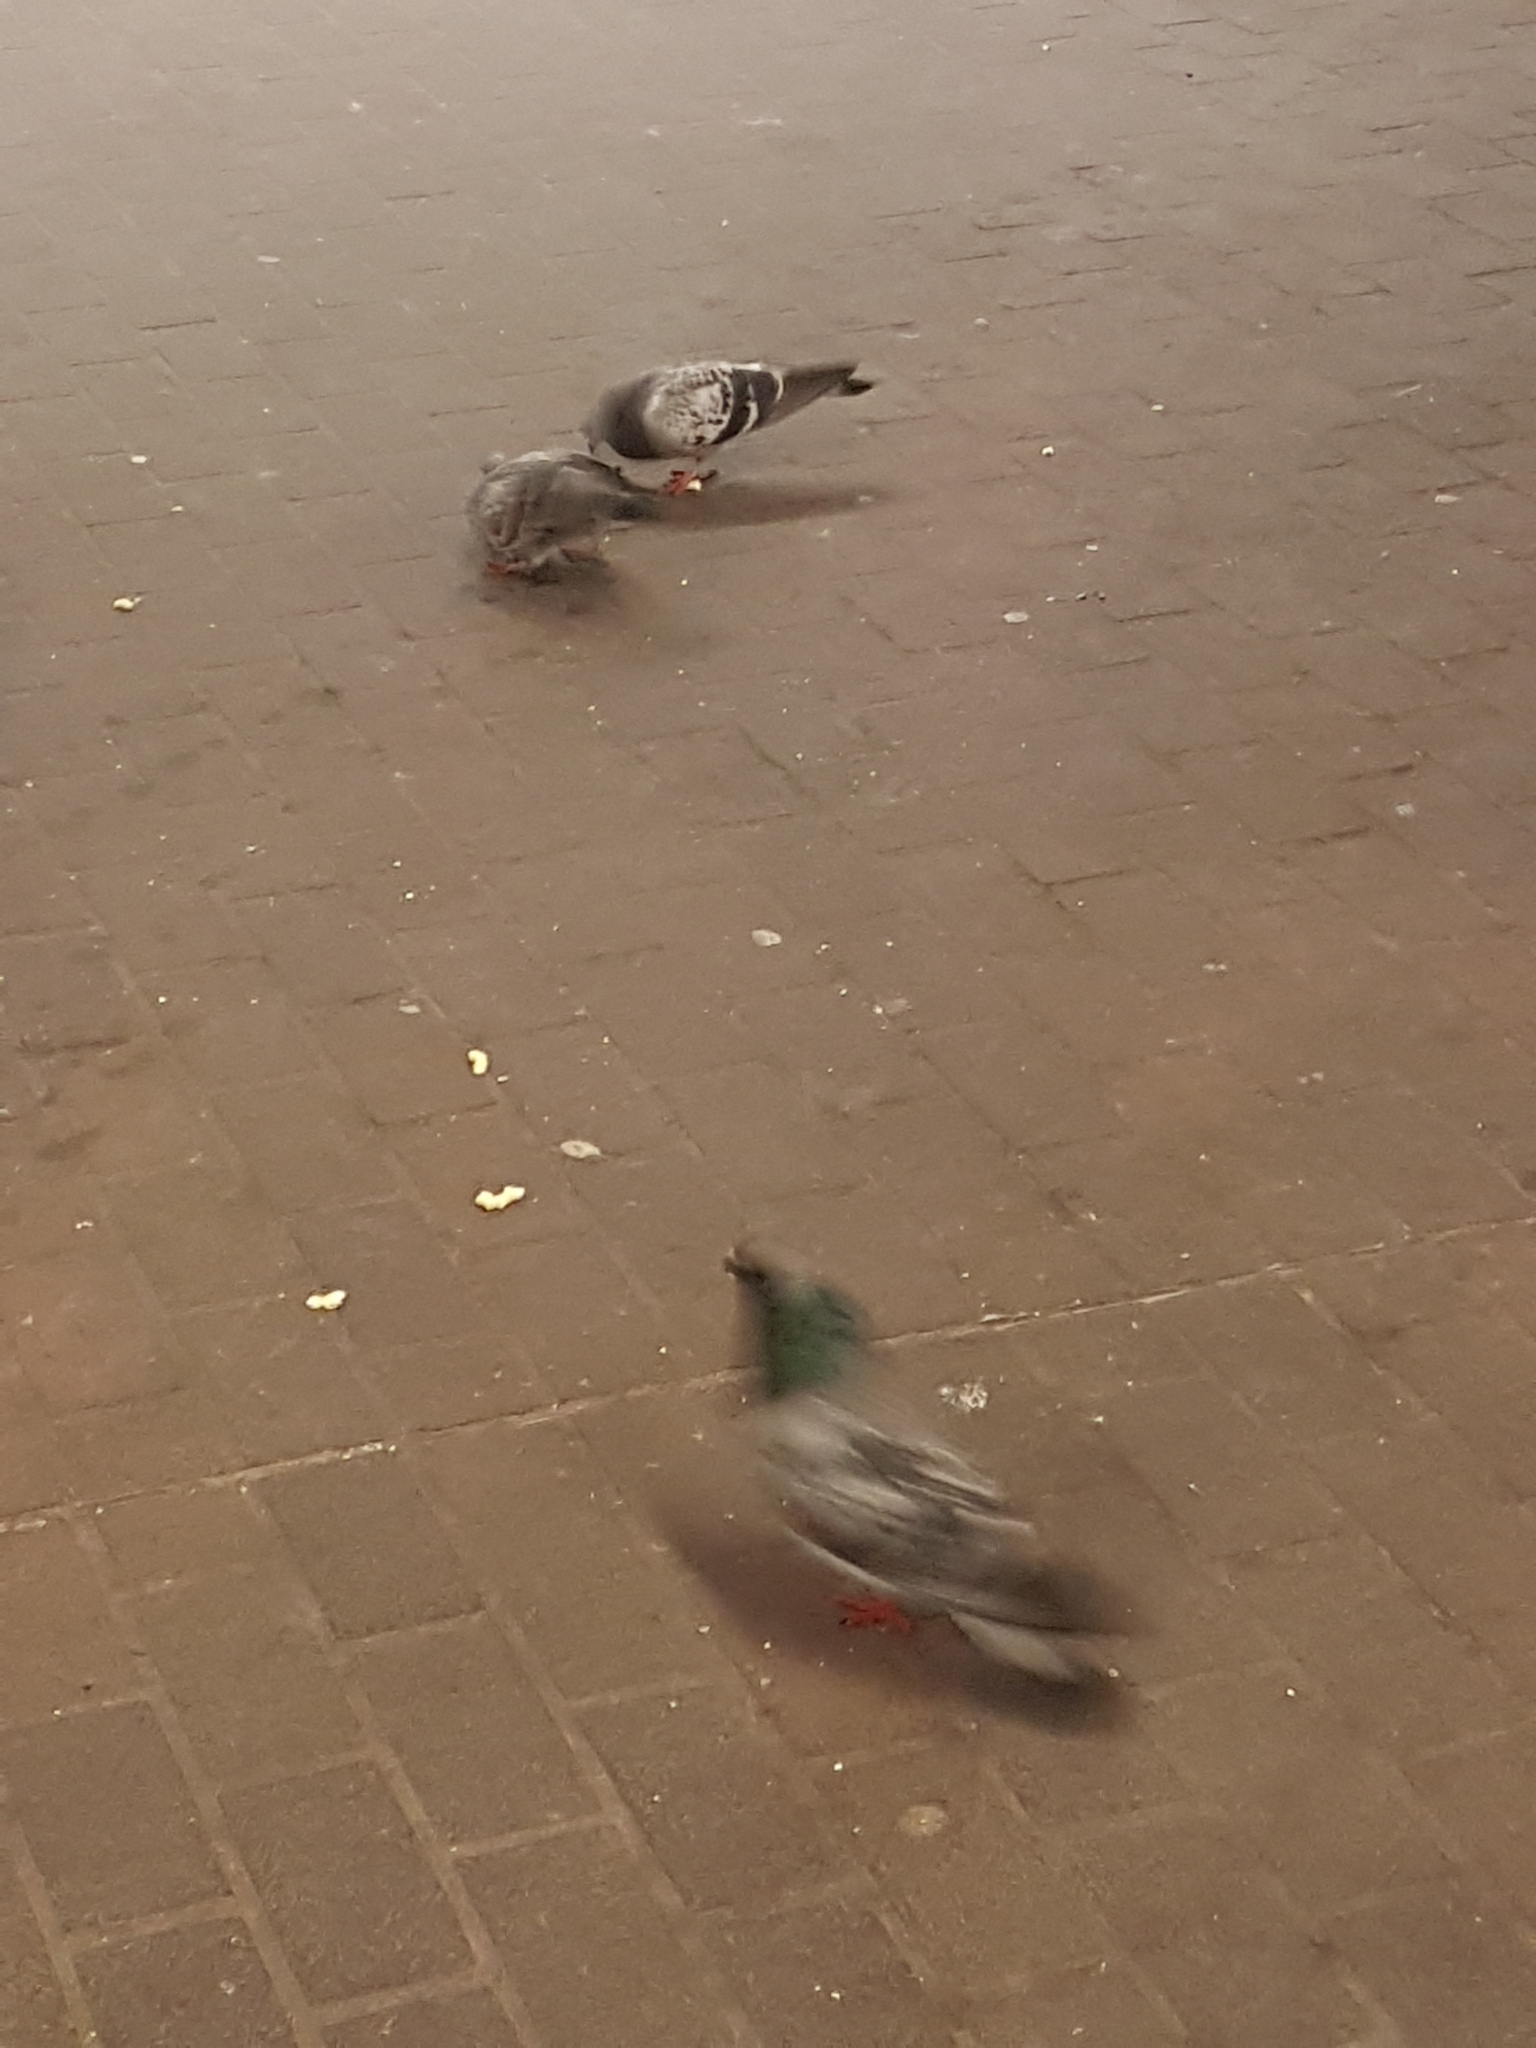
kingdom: Animalia
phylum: Chordata
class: Aves
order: Columbiformes
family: Columbidae
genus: Columba
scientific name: Columba livia
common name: Rock pigeon
